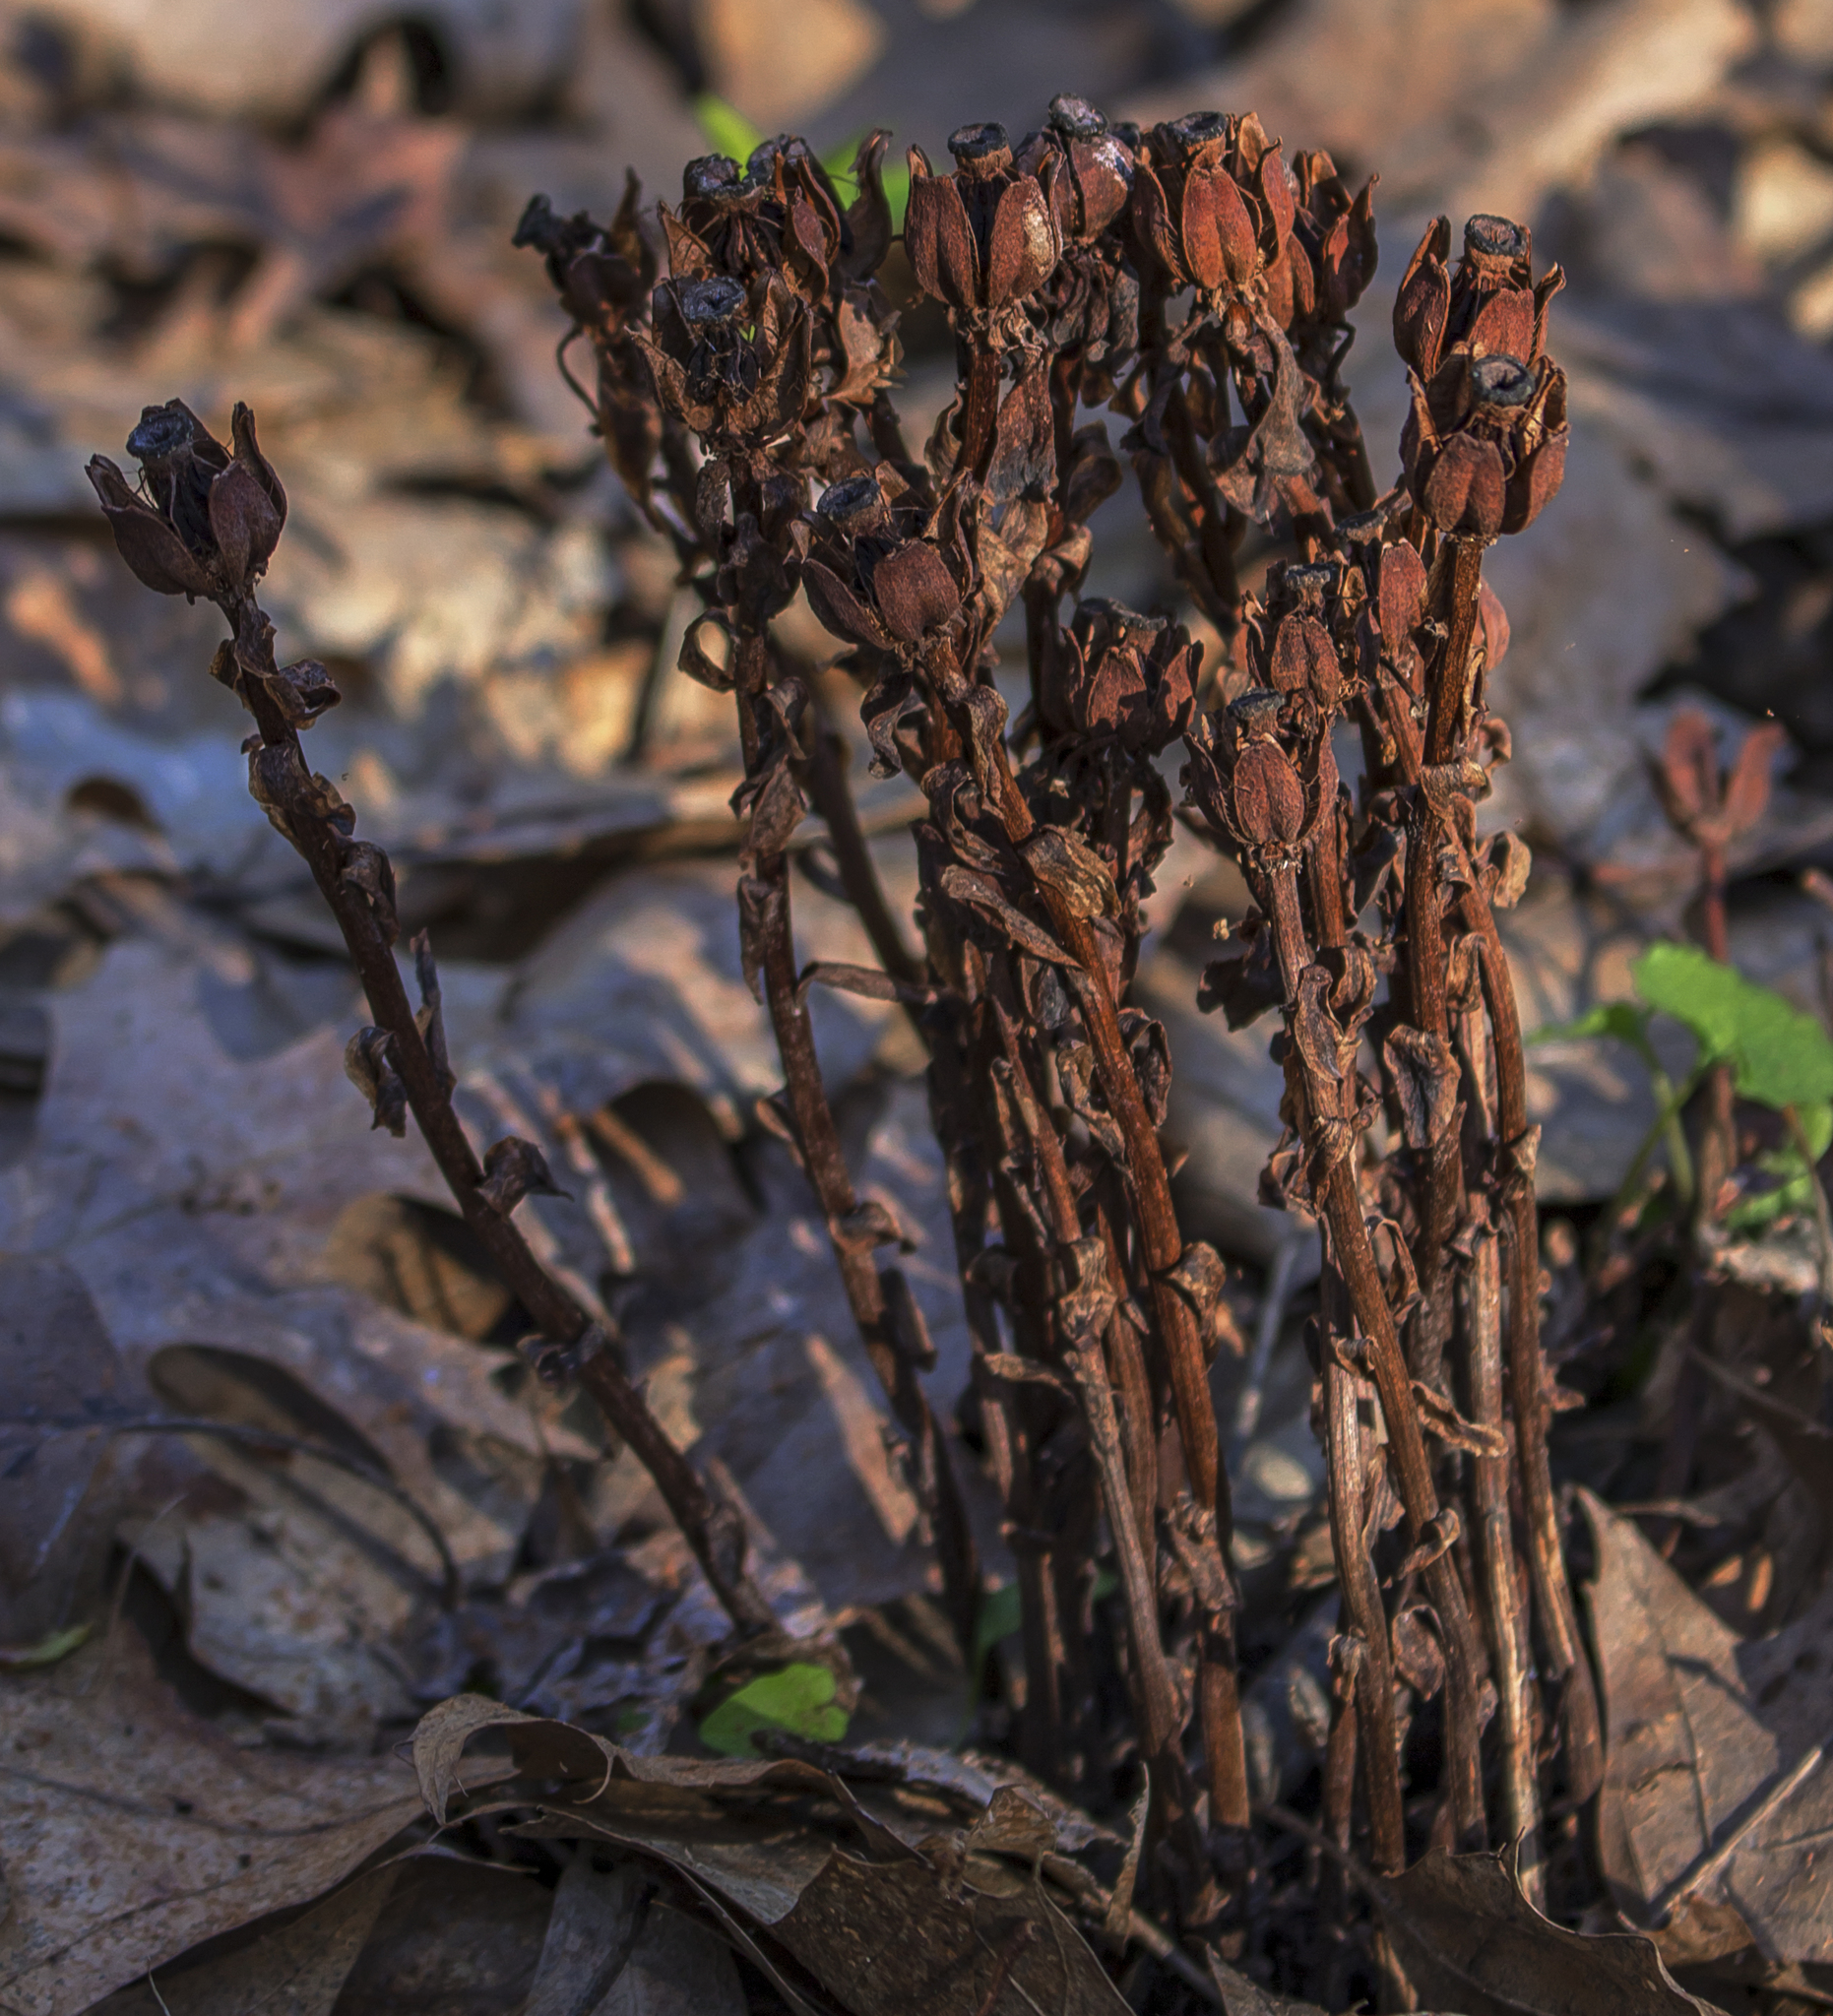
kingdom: Plantae
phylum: Tracheophyta
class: Magnoliopsida
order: Ericales
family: Ericaceae
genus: Monotropa
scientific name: Monotropa uniflora
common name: Convulsion root
